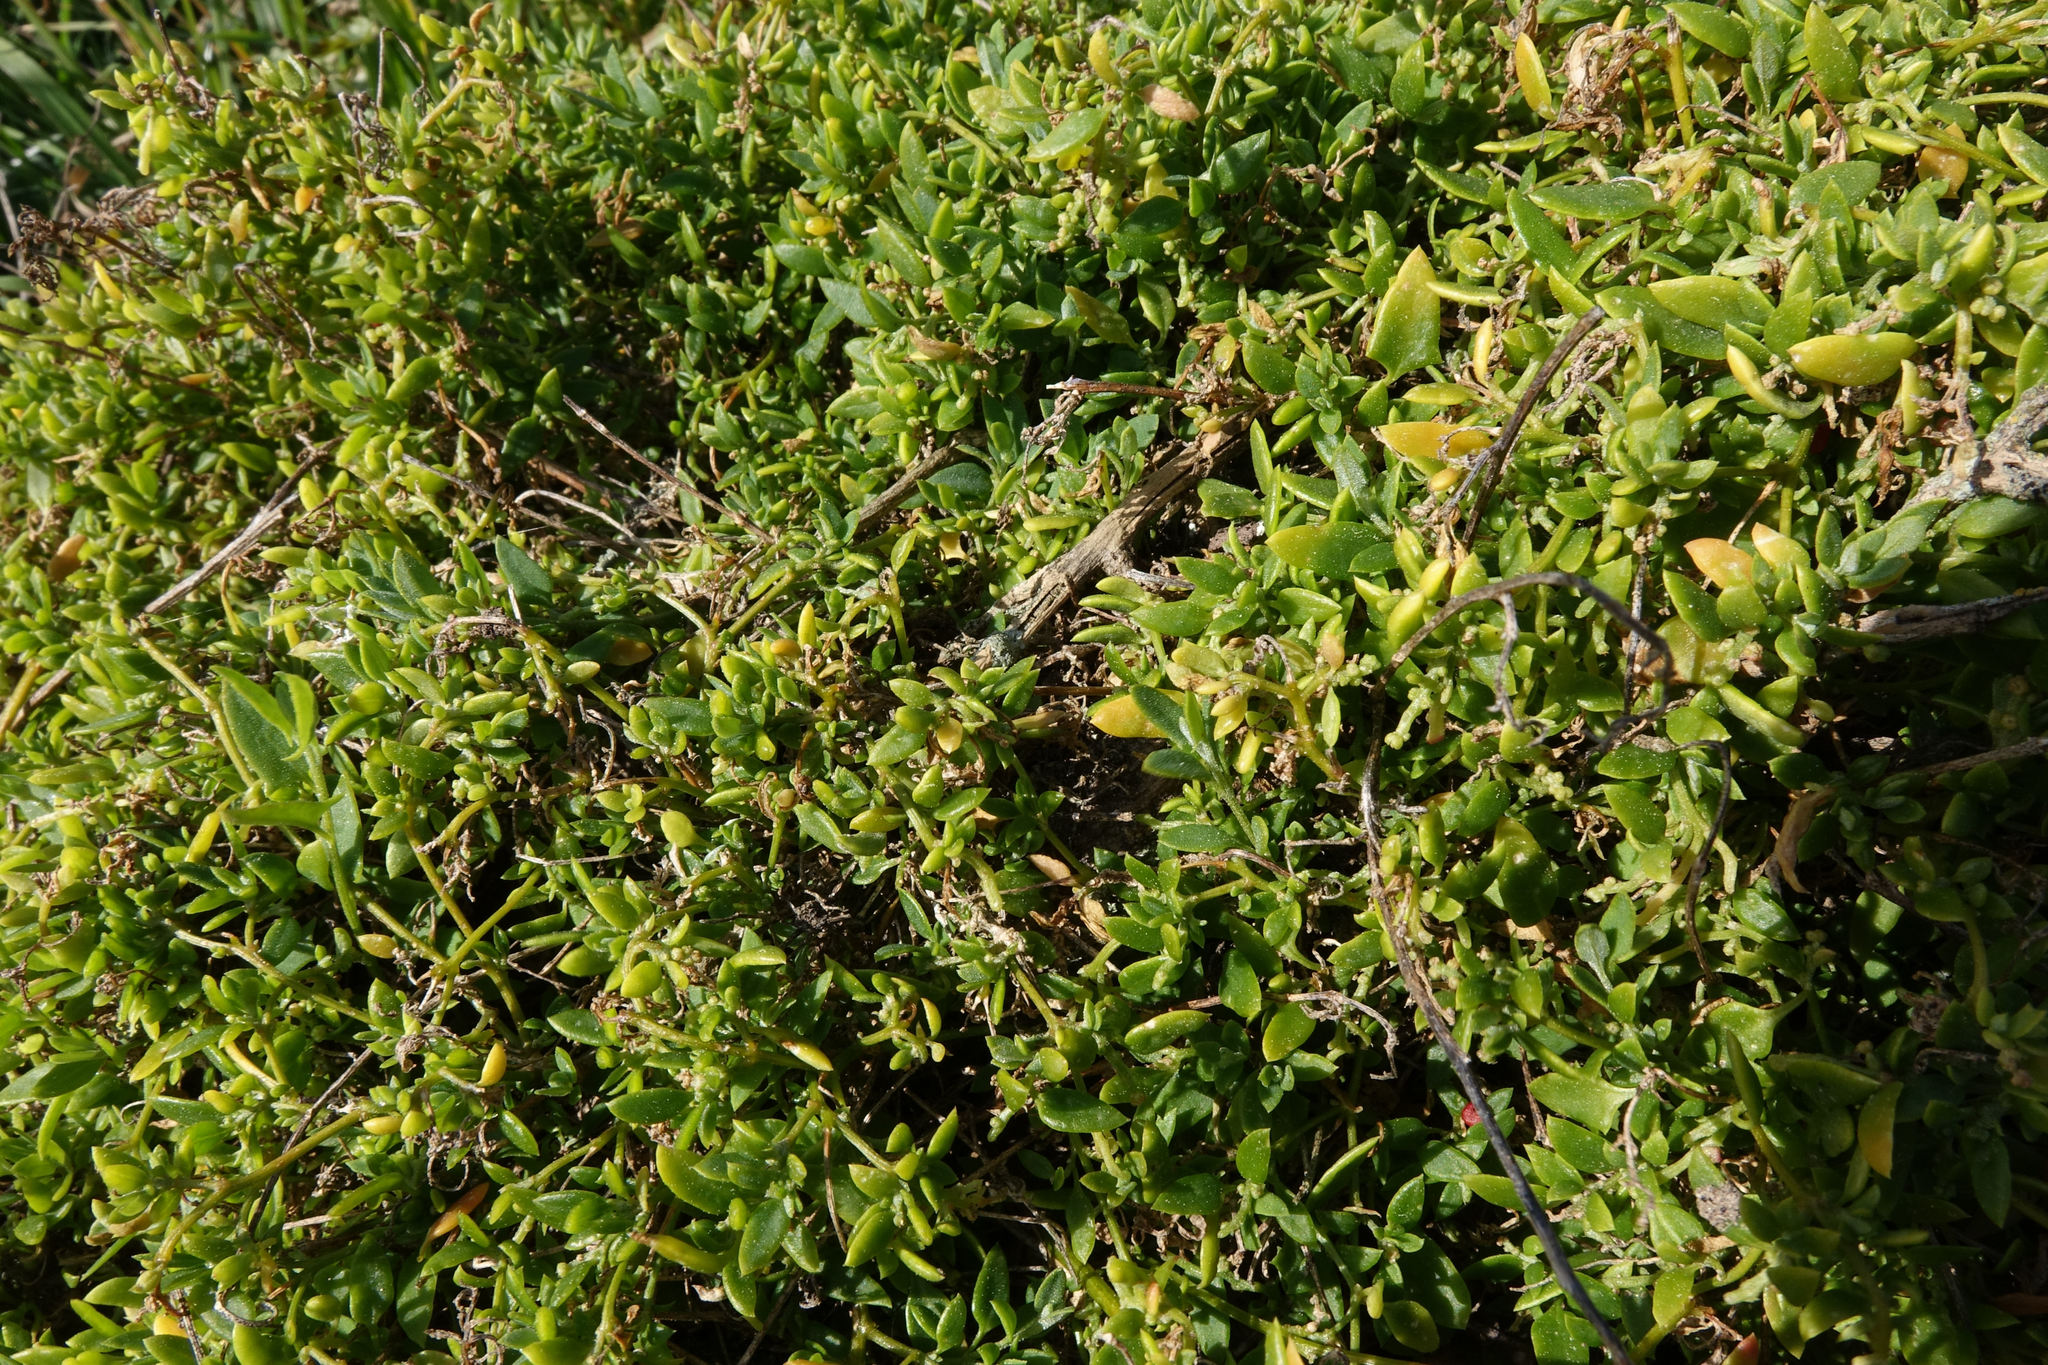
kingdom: Plantae
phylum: Tracheophyta
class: Magnoliopsida
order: Caryophyllales
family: Amaranthaceae
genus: Chenopodium
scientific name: Chenopodium nutans
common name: Climbing-saltbush
